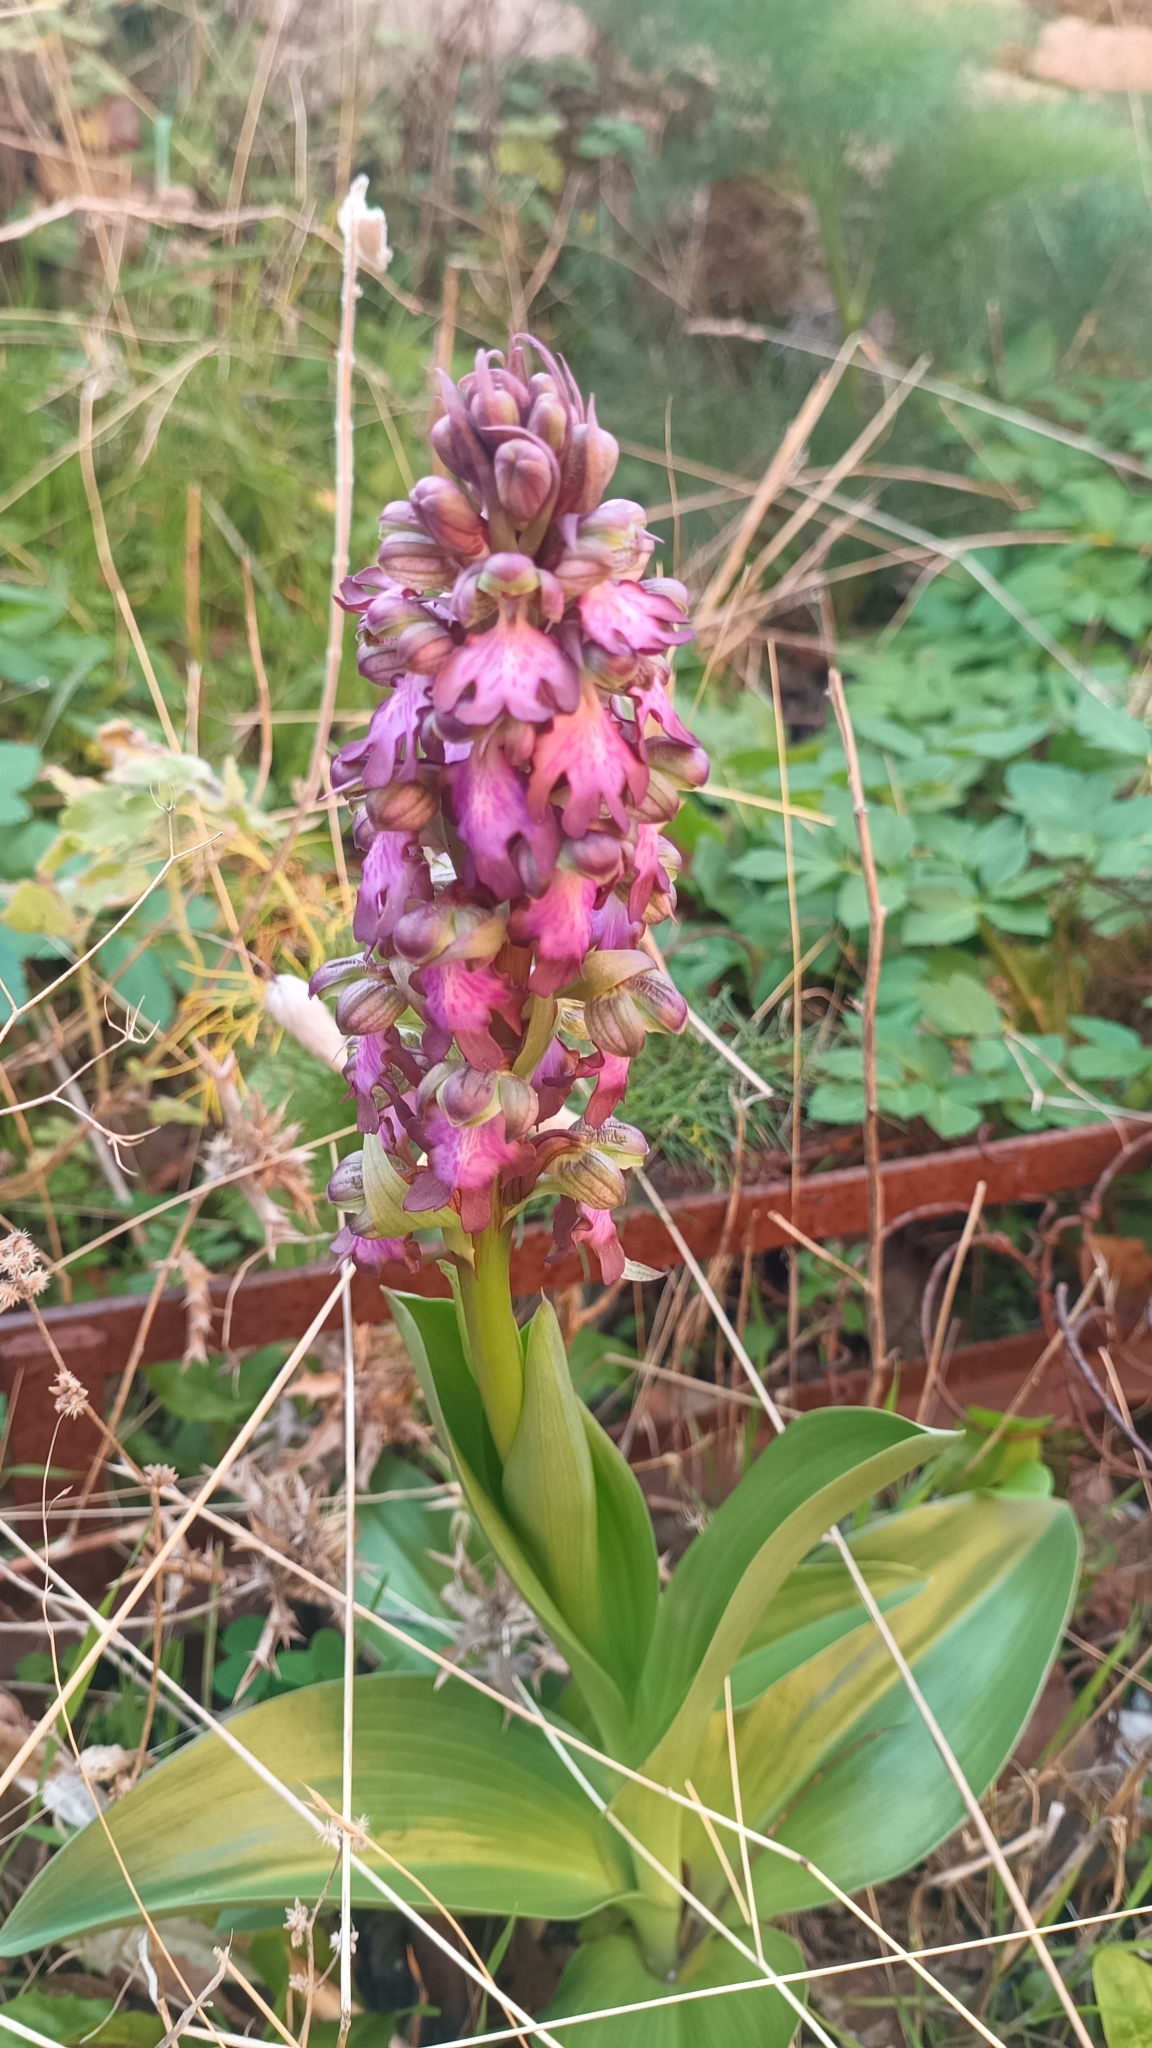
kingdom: Plantae
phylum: Tracheophyta
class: Liliopsida
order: Asparagales
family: Orchidaceae
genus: Himantoglossum
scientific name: Himantoglossum robertianum
